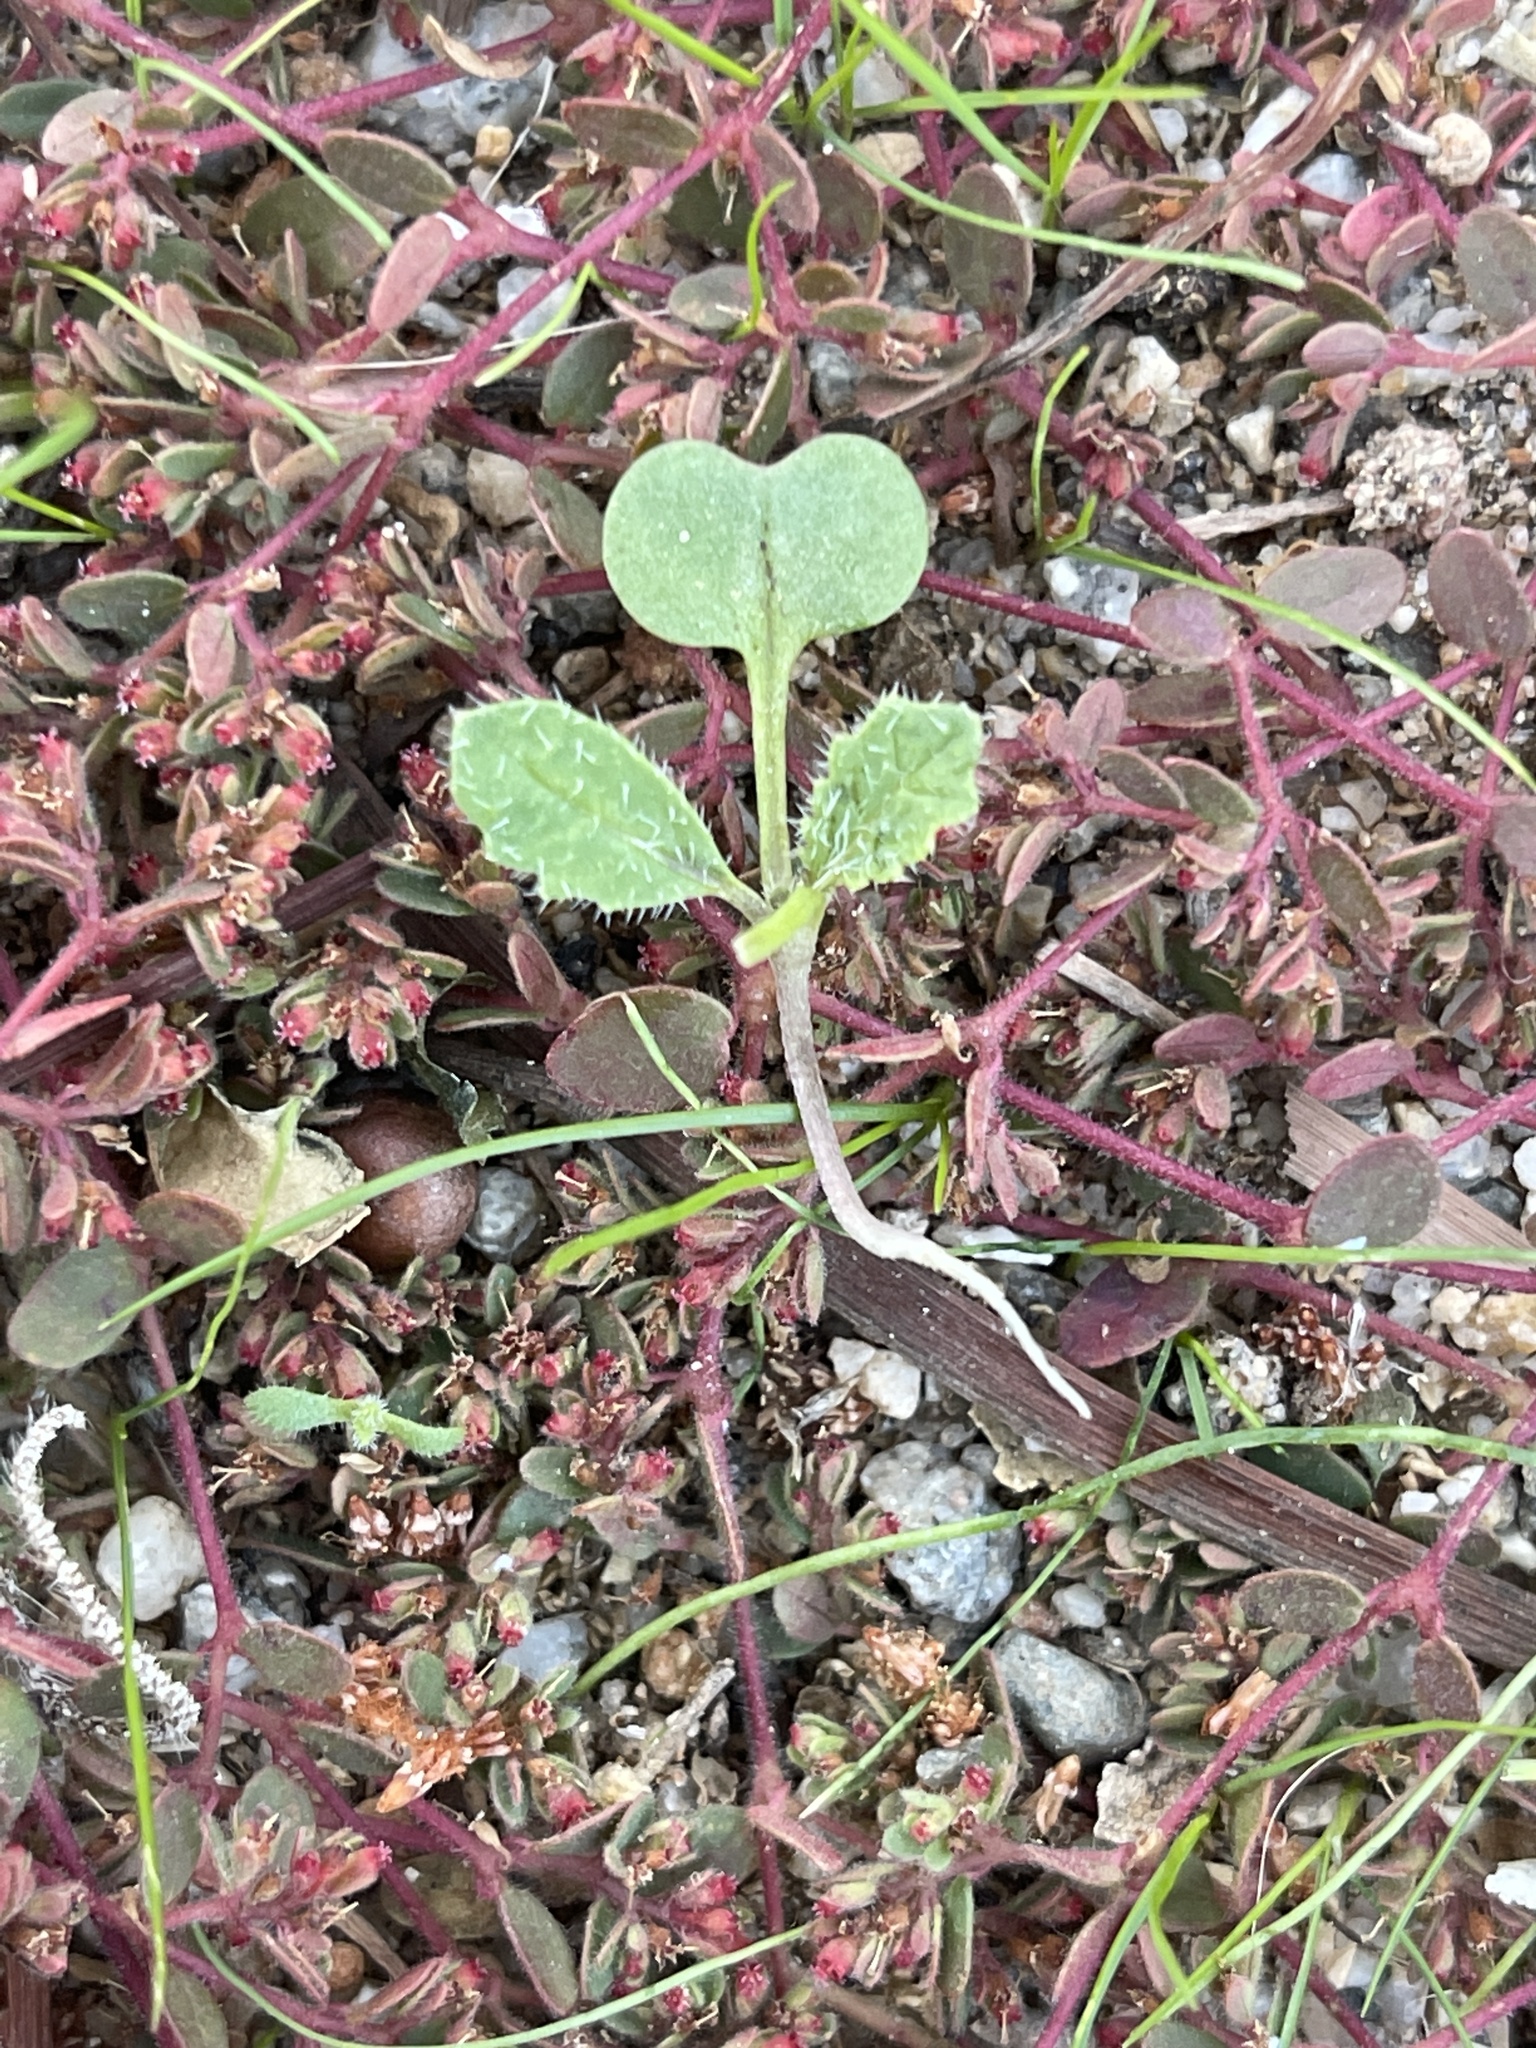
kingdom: Plantae
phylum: Tracheophyta
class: Magnoliopsida
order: Brassicales
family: Brassicaceae
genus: Brassica
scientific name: Brassica tournefortii
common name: Pale cabbage
